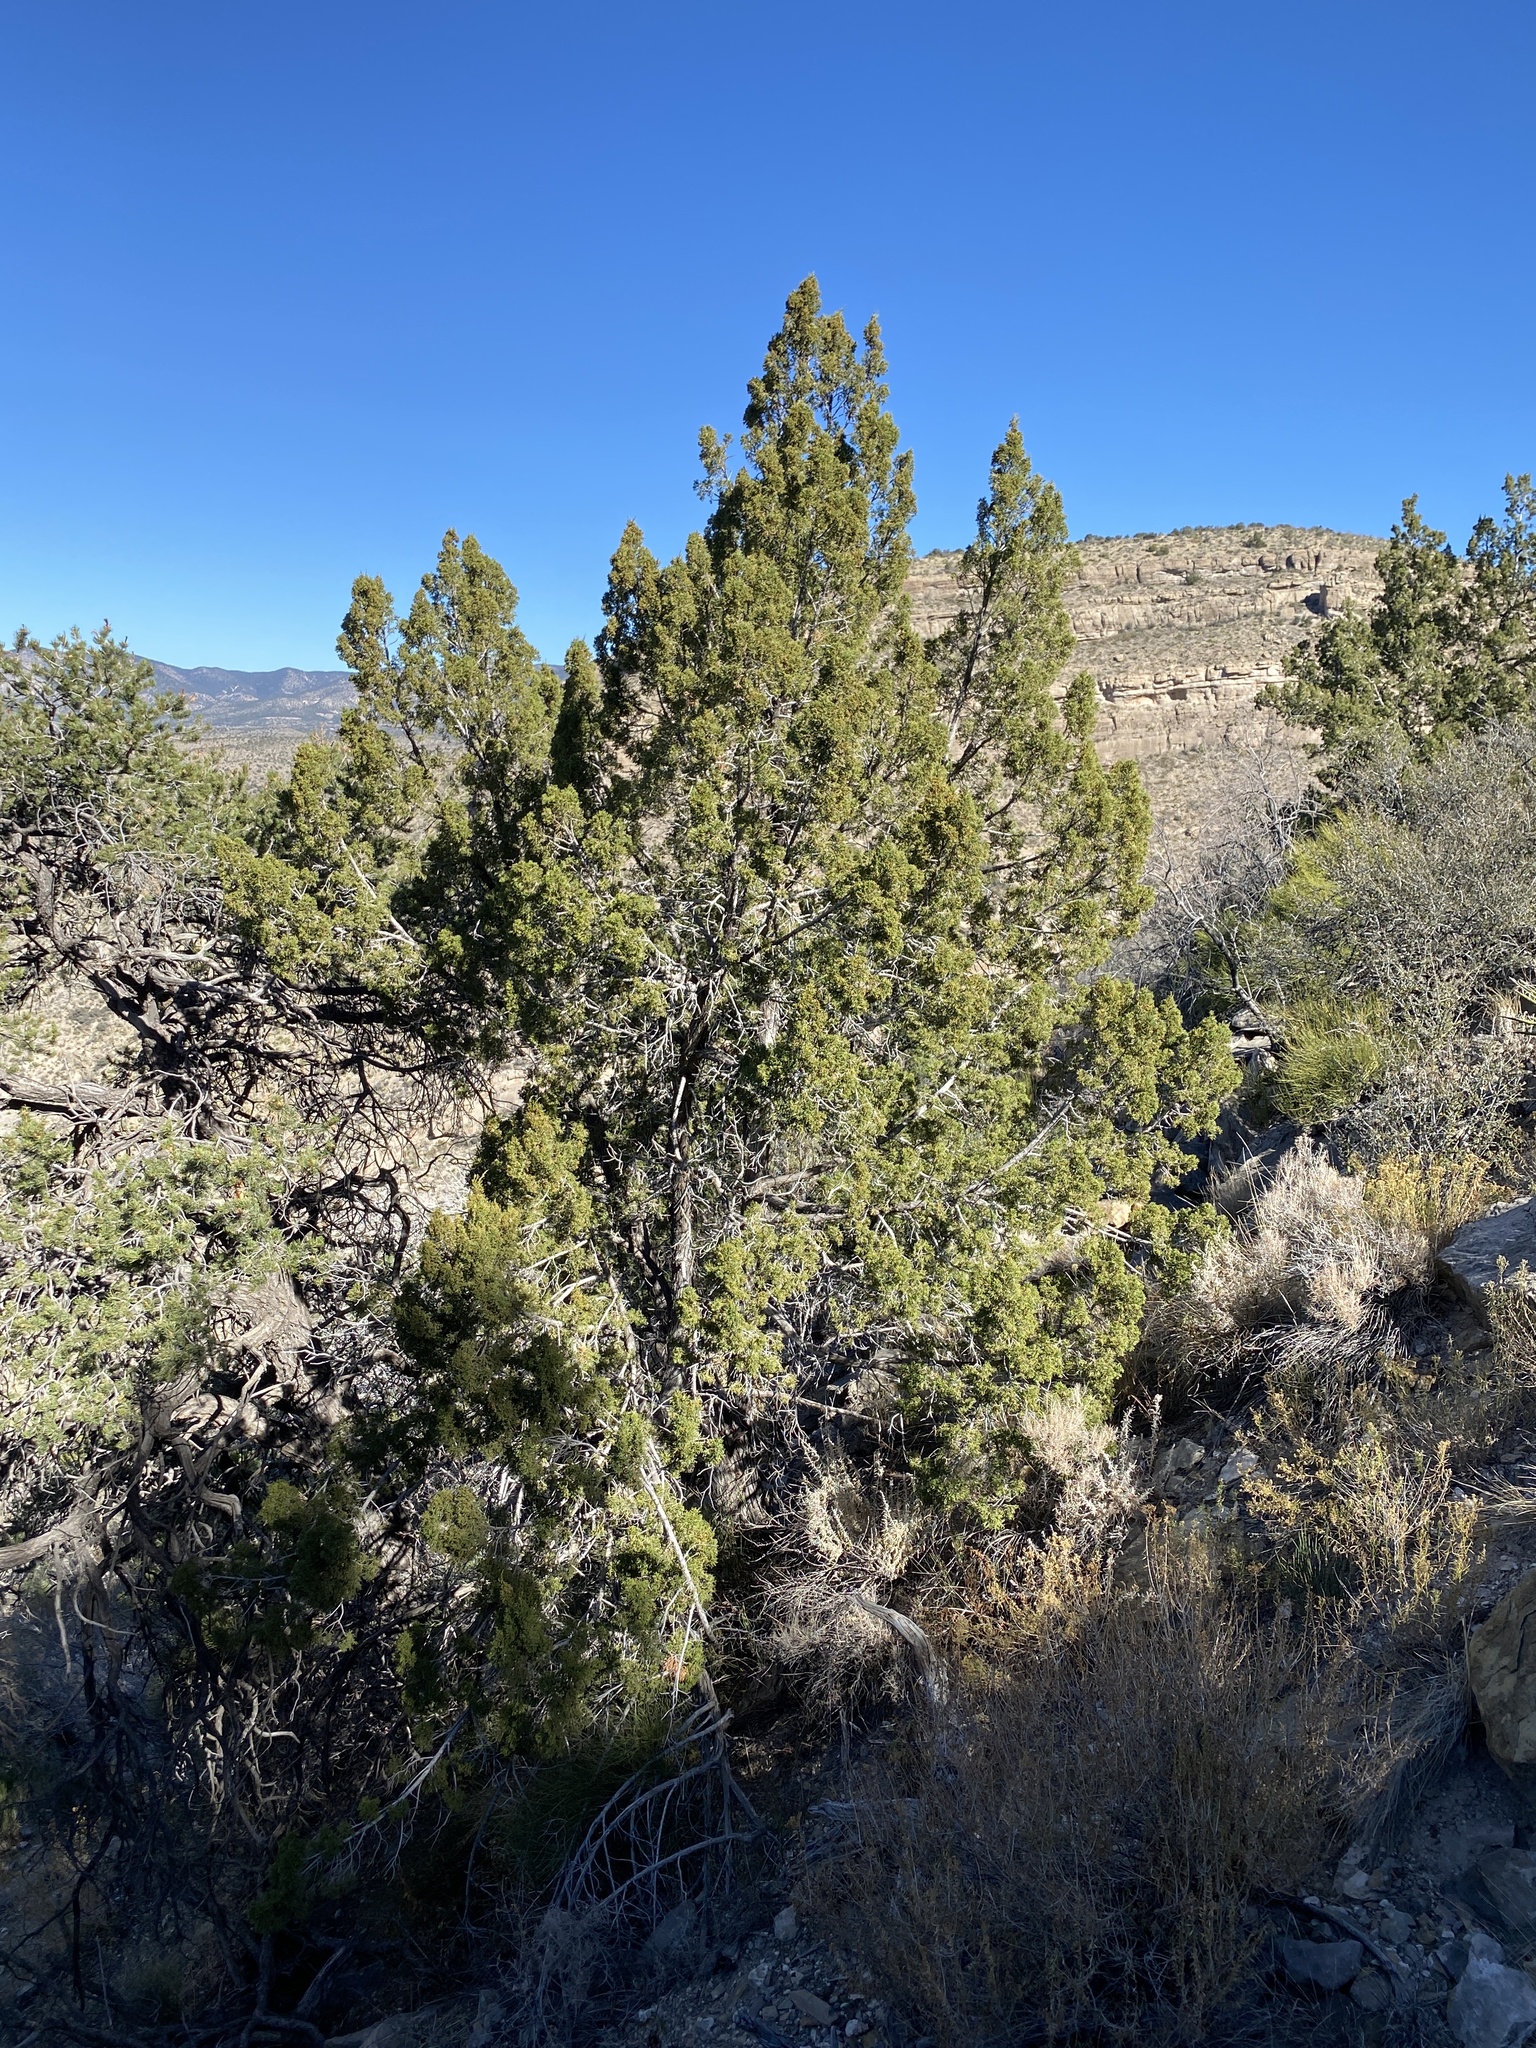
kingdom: Plantae
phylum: Tracheophyta
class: Pinopsida
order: Pinales
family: Cupressaceae
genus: Juniperus
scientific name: Juniperus monosperma
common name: One-seed juniper
